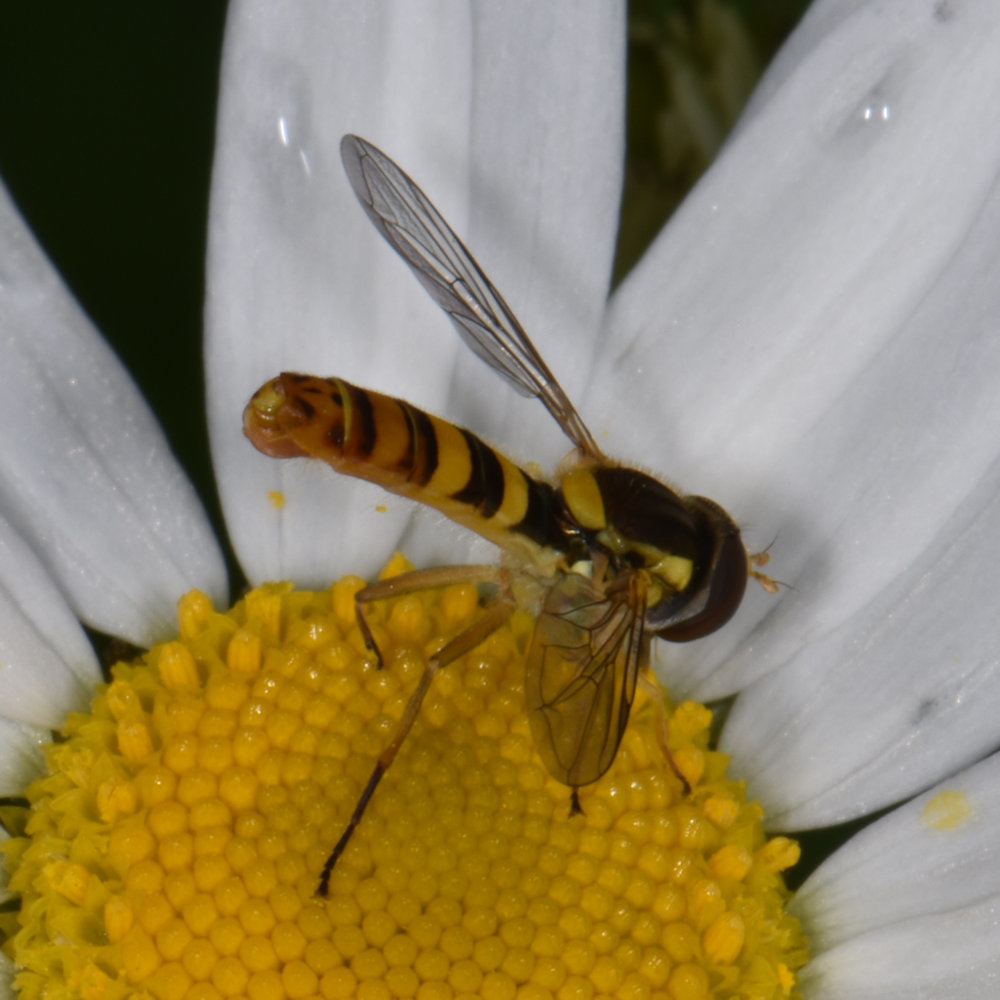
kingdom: Animalia
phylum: Arthropoda
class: Insecta
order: Diptera
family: Syrphidae
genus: Sphaerophoria
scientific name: Sphaerophoria philantha
